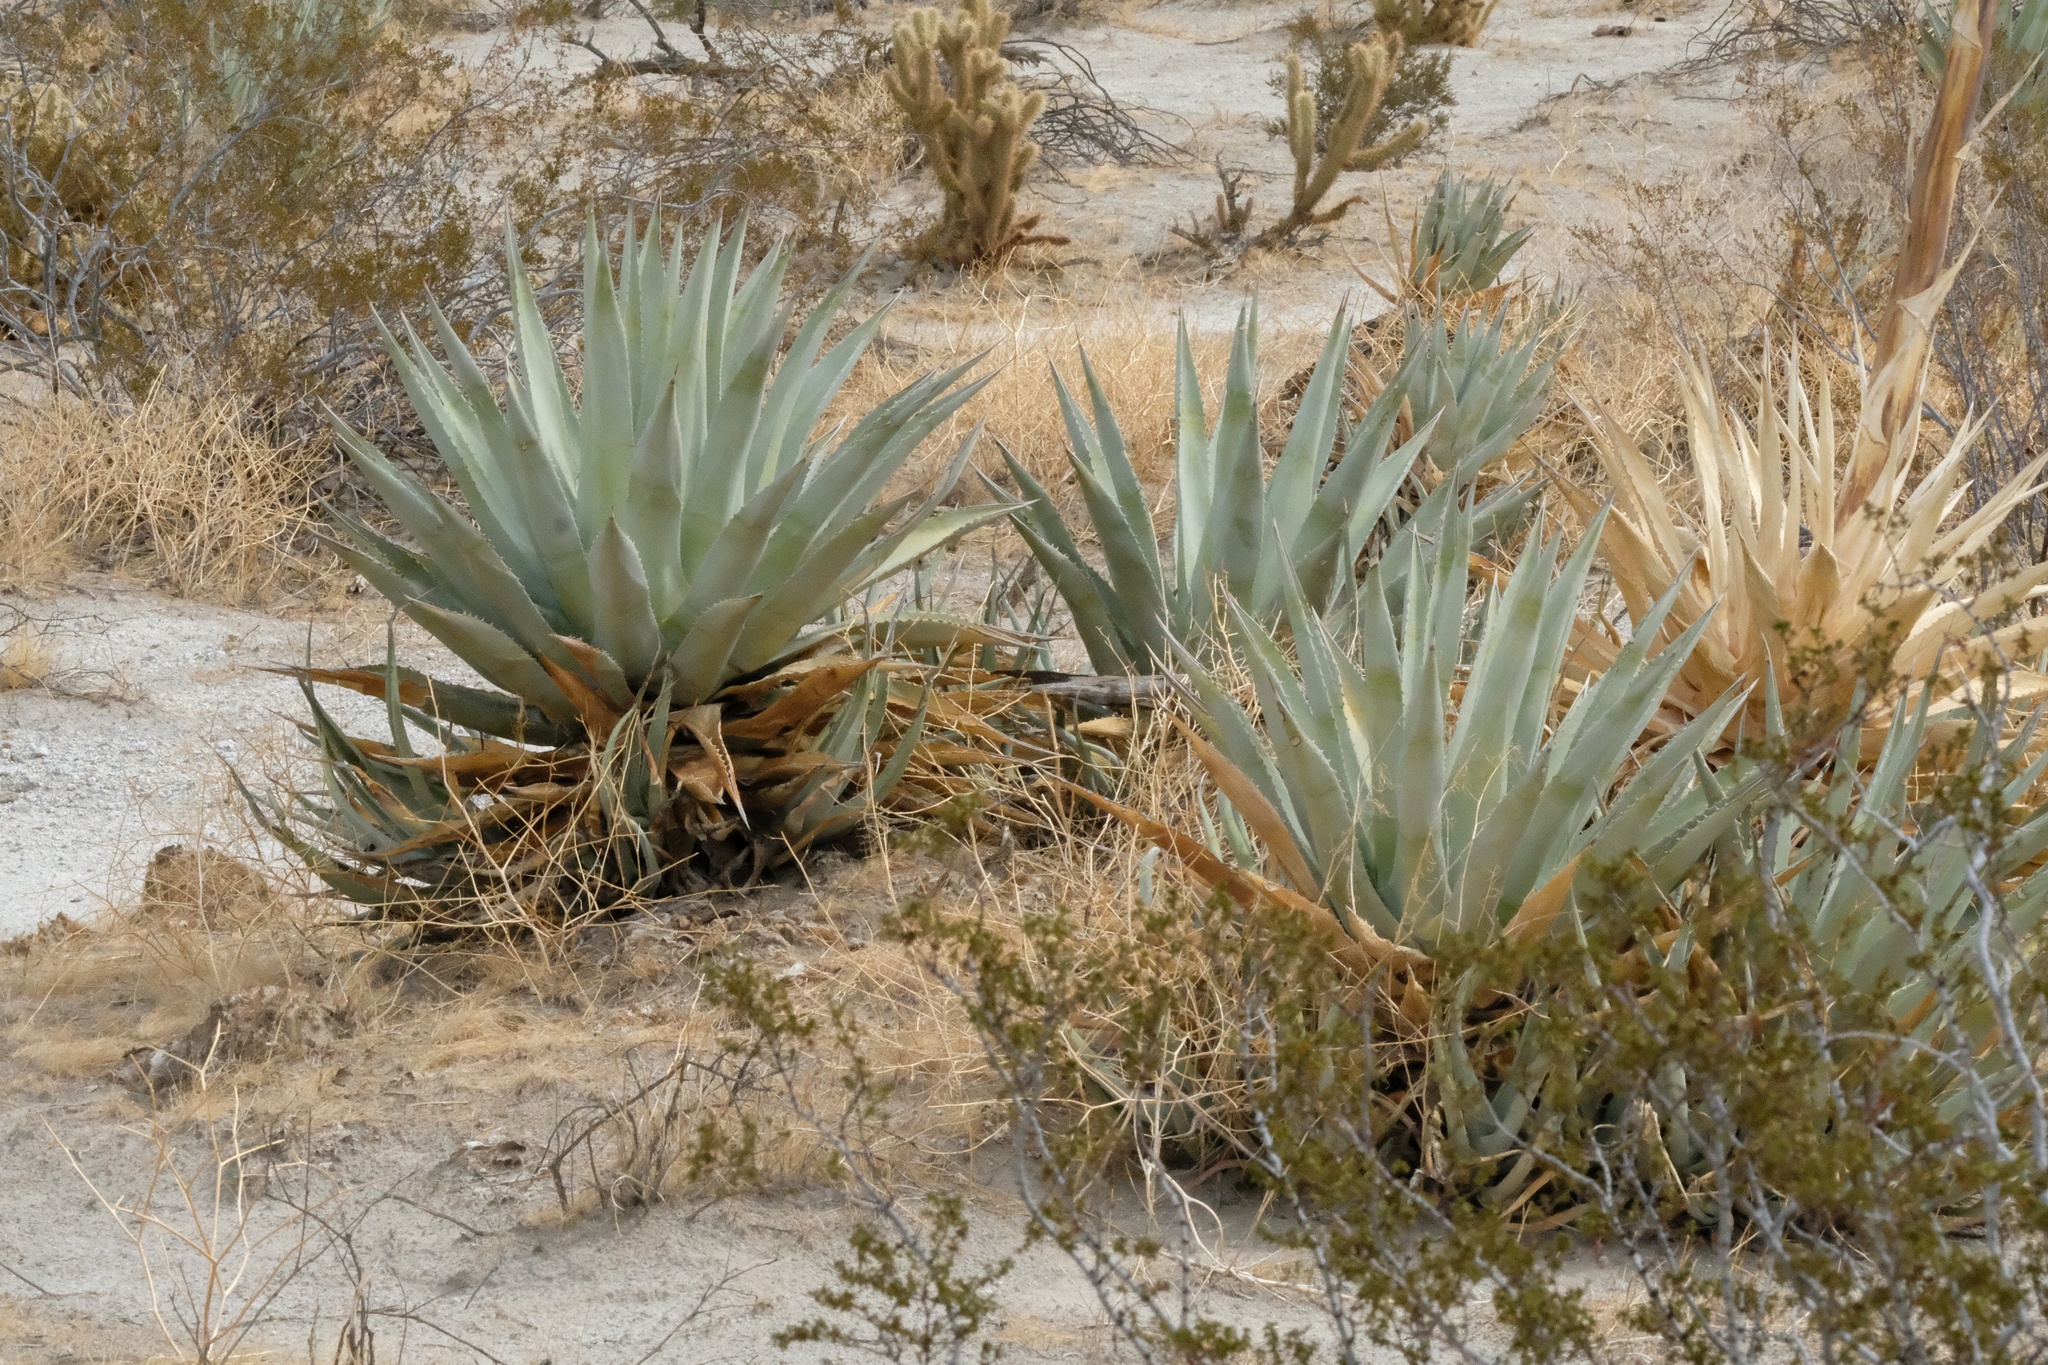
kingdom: Plantae
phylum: Tracheophyta
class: Liliopsida
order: Asparagales
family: Asparagaceae
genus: Agave
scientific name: Agave deserti
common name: Desert agave
